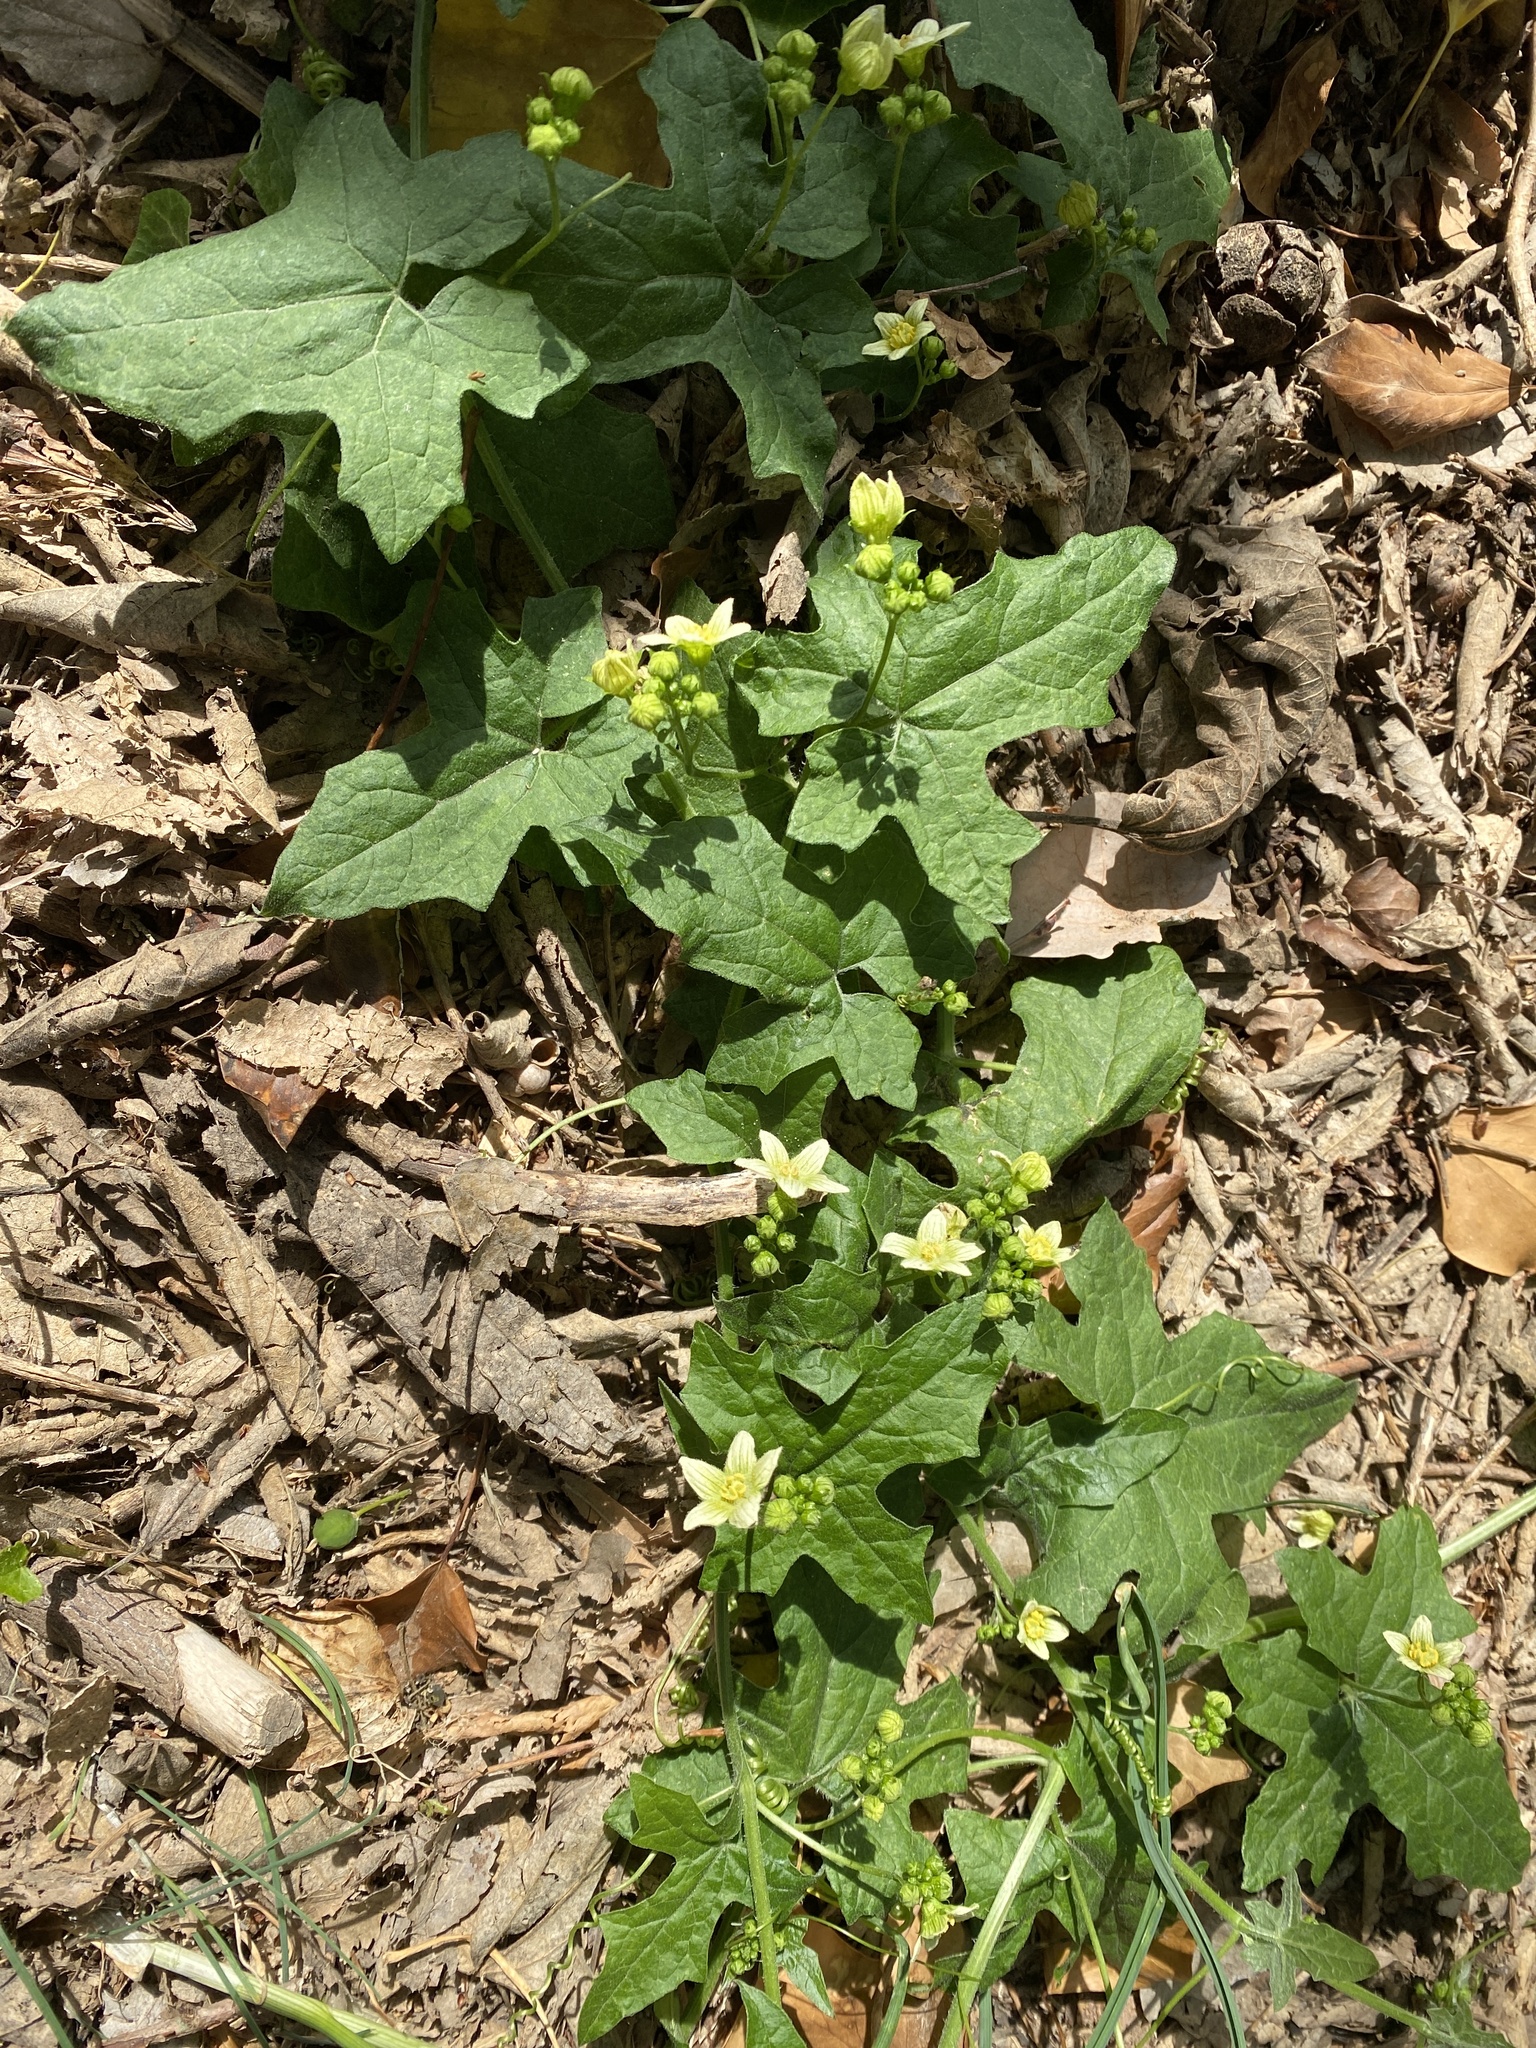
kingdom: Plantae
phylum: Tracheophyta
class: Magnoliopsida
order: Cucurbitales
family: Cucurbitaceae
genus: Bryonia
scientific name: Bryonia cretica
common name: Cretan bryony
